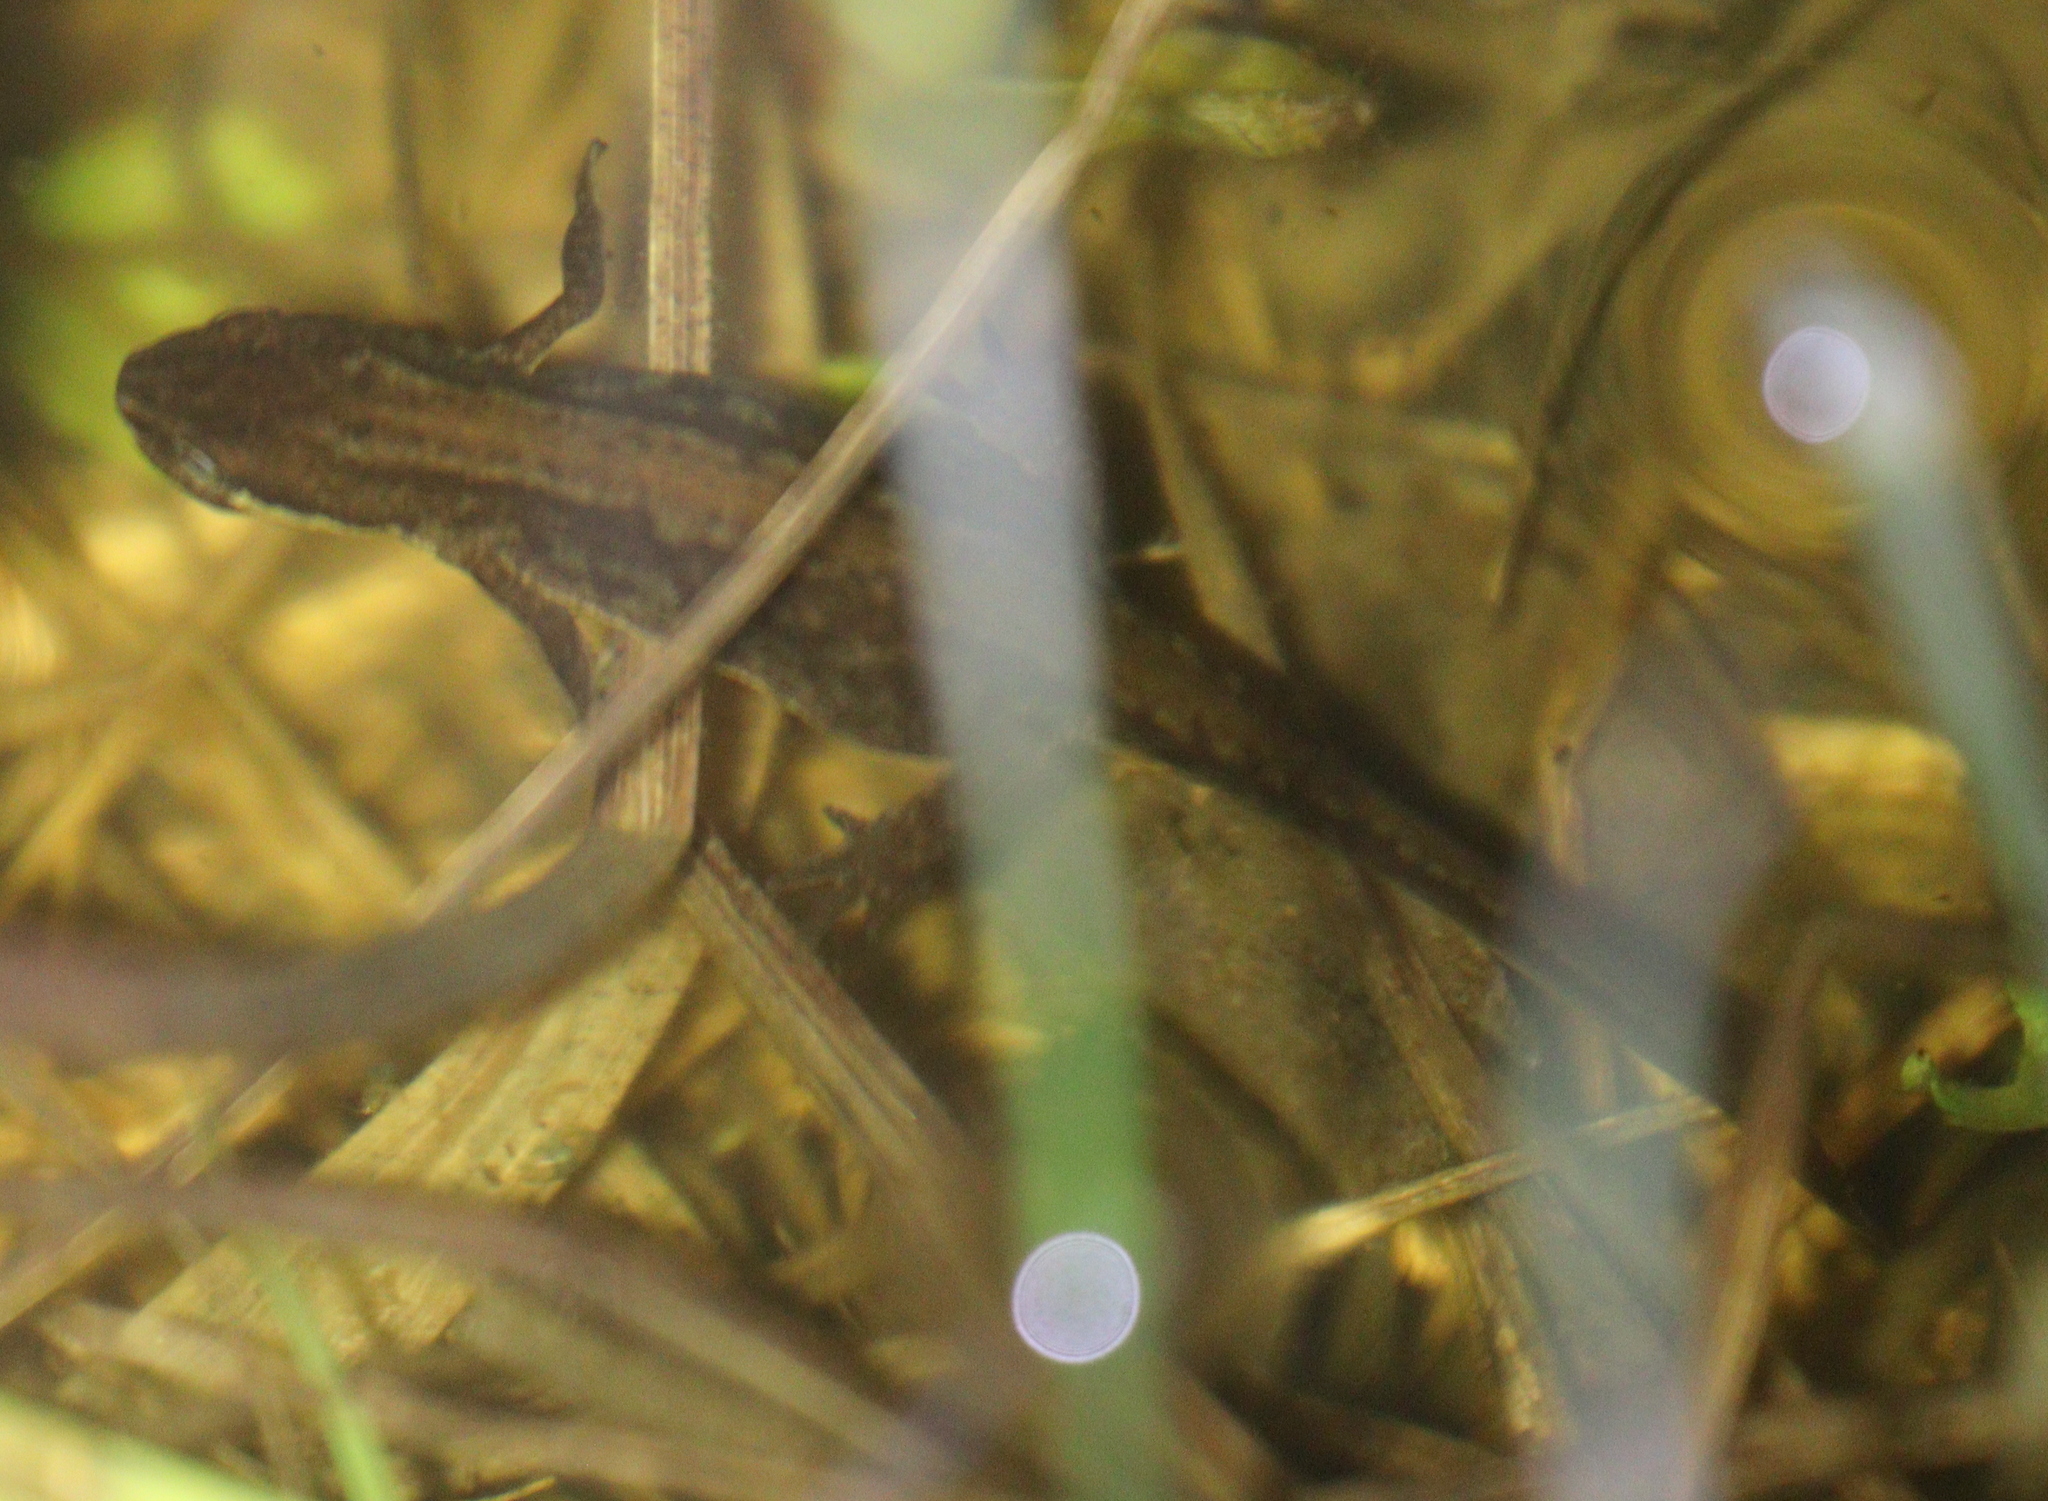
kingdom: Animalia
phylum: Chordata
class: Amphibia
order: Caudata
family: Salamandridae
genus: Lissotriton
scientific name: Lissotriton vulgaris
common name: Smooth newt
